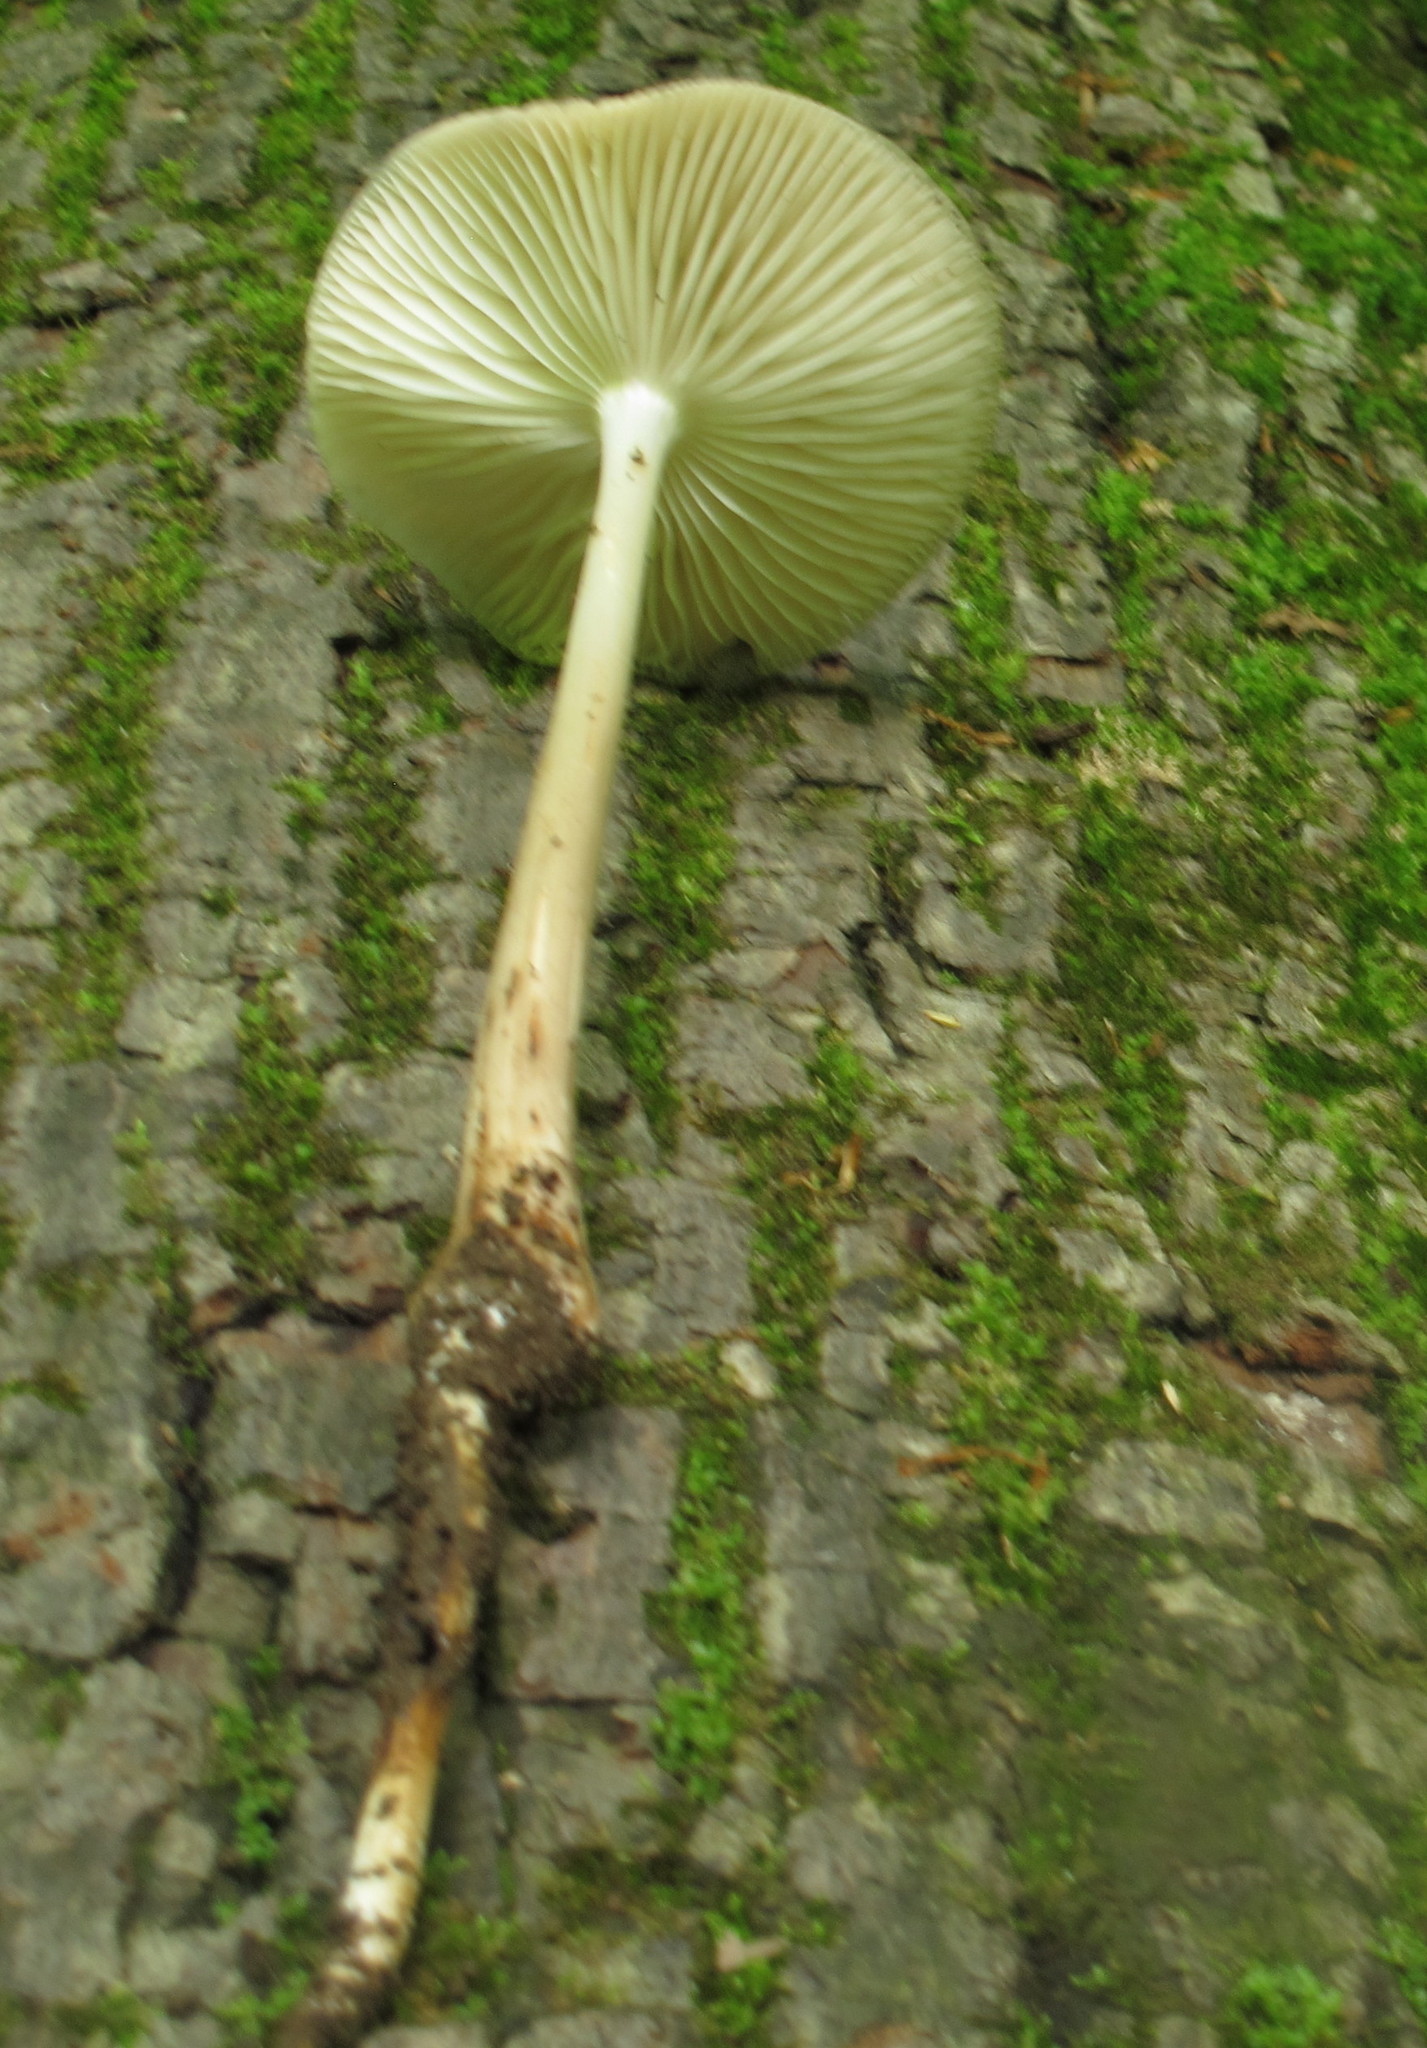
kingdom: Fungi
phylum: Basidiomycota
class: Agaricomycetes
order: Agaricales
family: Physalacriaceae
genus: Hymenopellis
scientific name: Hymenopellis megalospora
